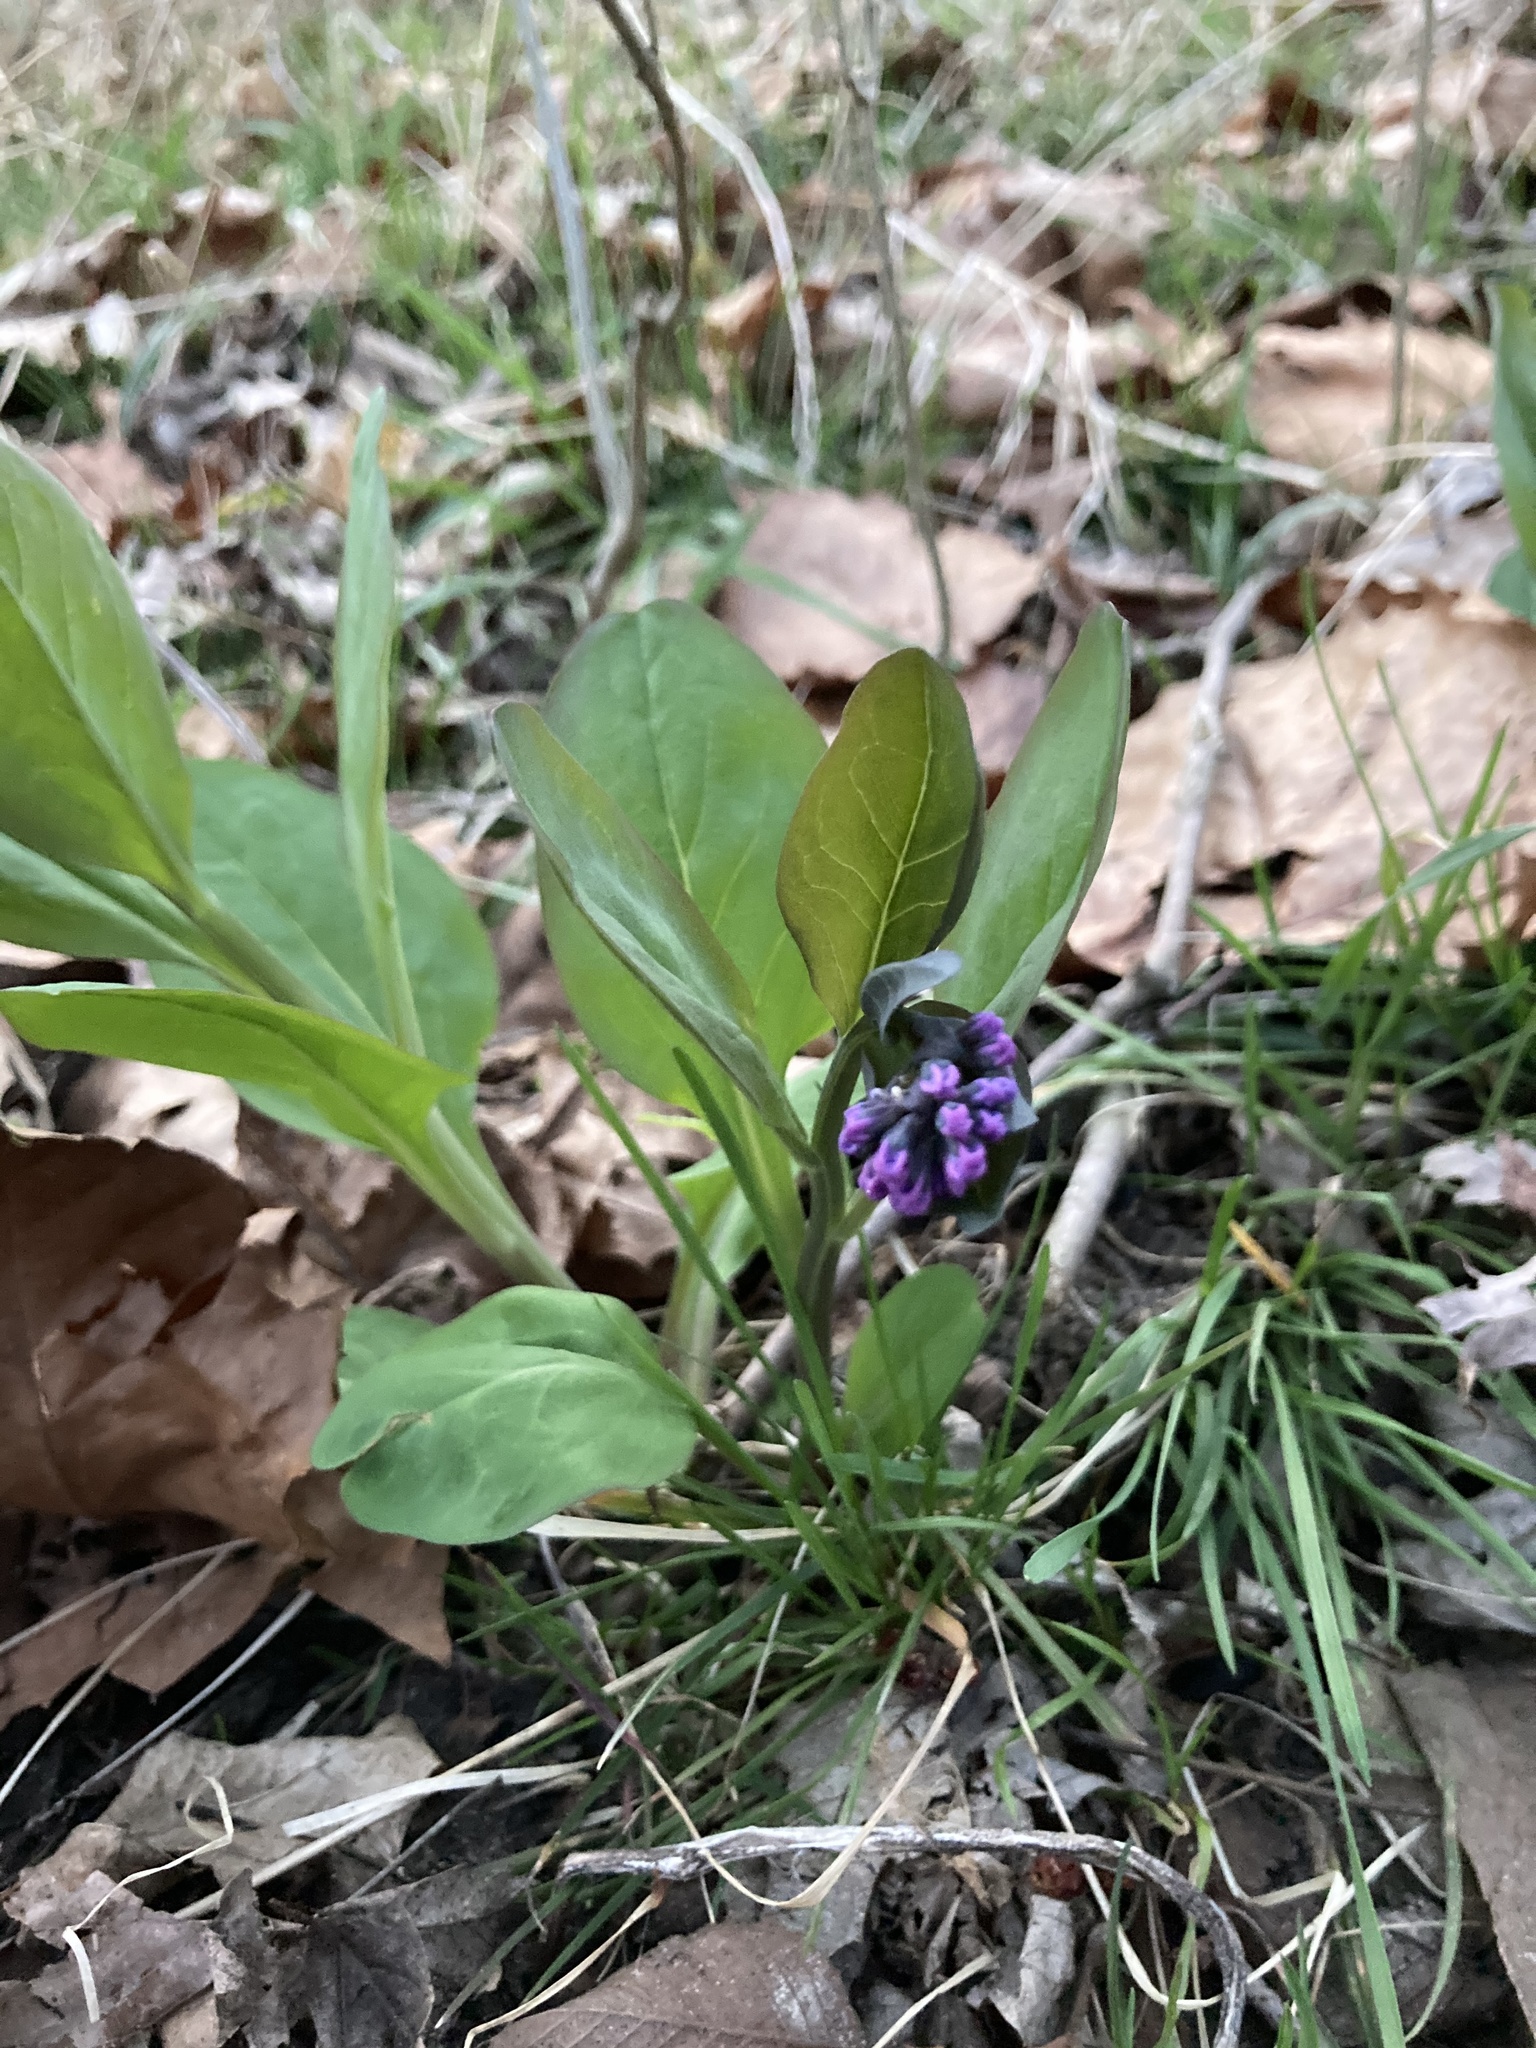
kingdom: Plantae
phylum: Tracheophyta
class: Magnoliopsida
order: Boraginales
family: Boraginaceae
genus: Mertensia
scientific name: Mertensia virginica
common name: Virginia bluebells
